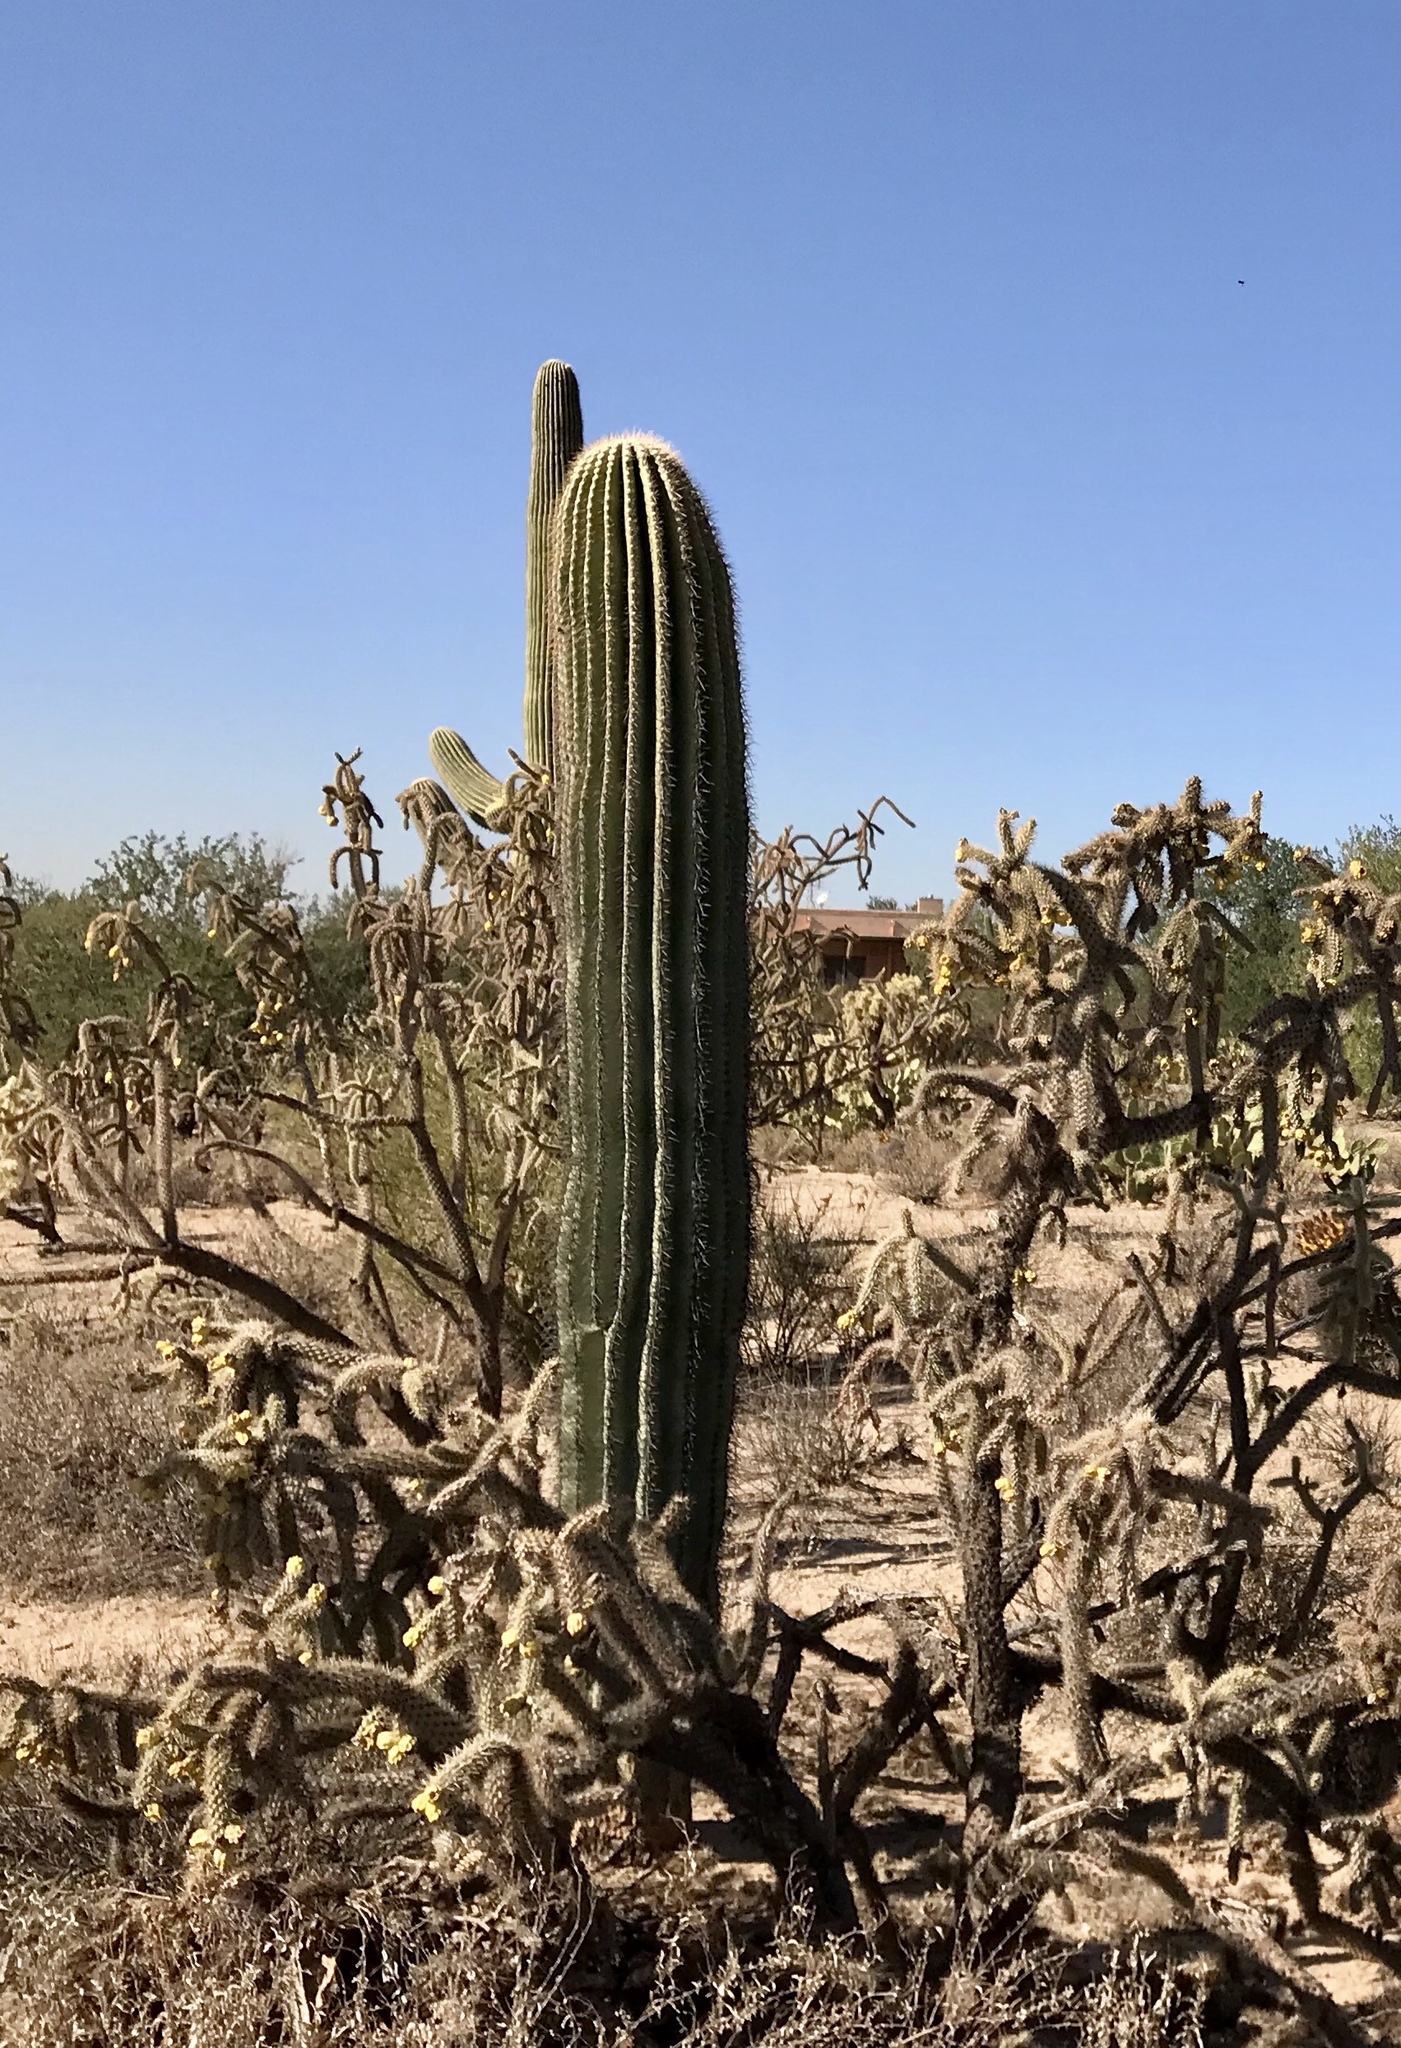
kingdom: Plantae
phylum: Tracheophyta
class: Magnoliopsida
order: Caryophyllales
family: Cactaceae
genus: Carnegiea
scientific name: Carnegiea gigantea
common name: Saguaro
